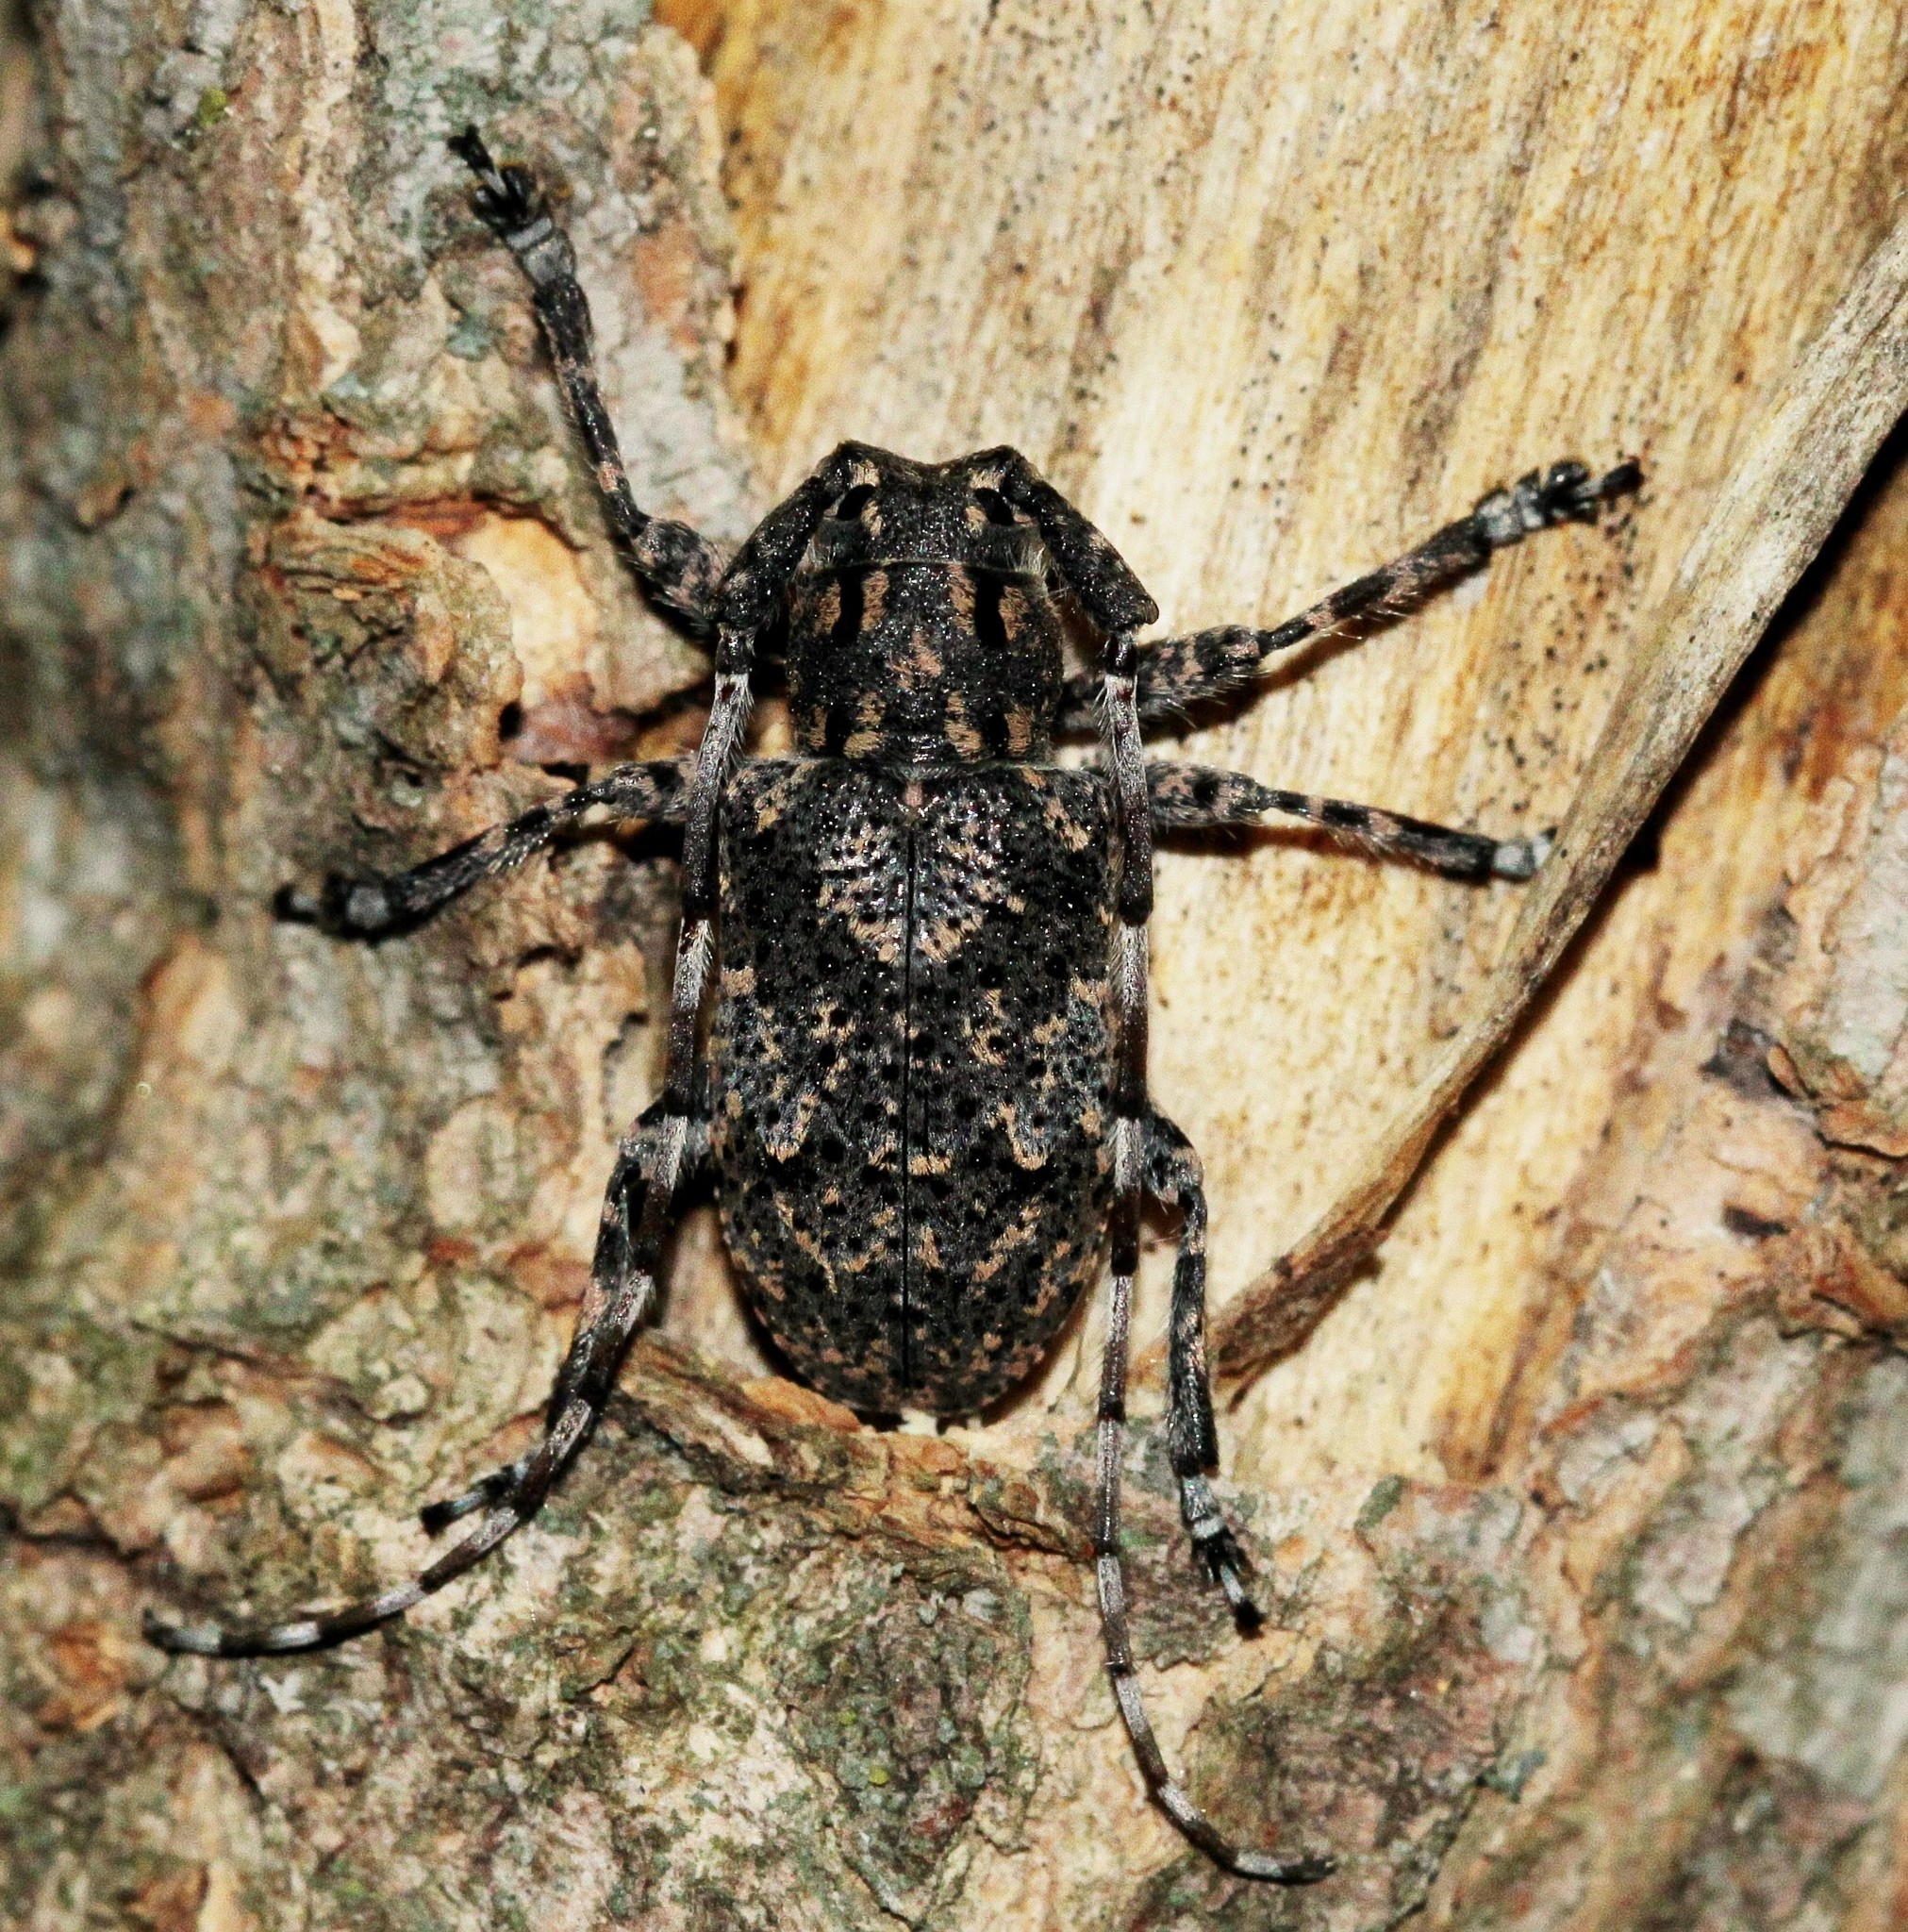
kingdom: Animalia
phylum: Arthropoda
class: Insecta
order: Coleoptera
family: Cerambycidae
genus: Mesosa
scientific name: Mesosa myops
